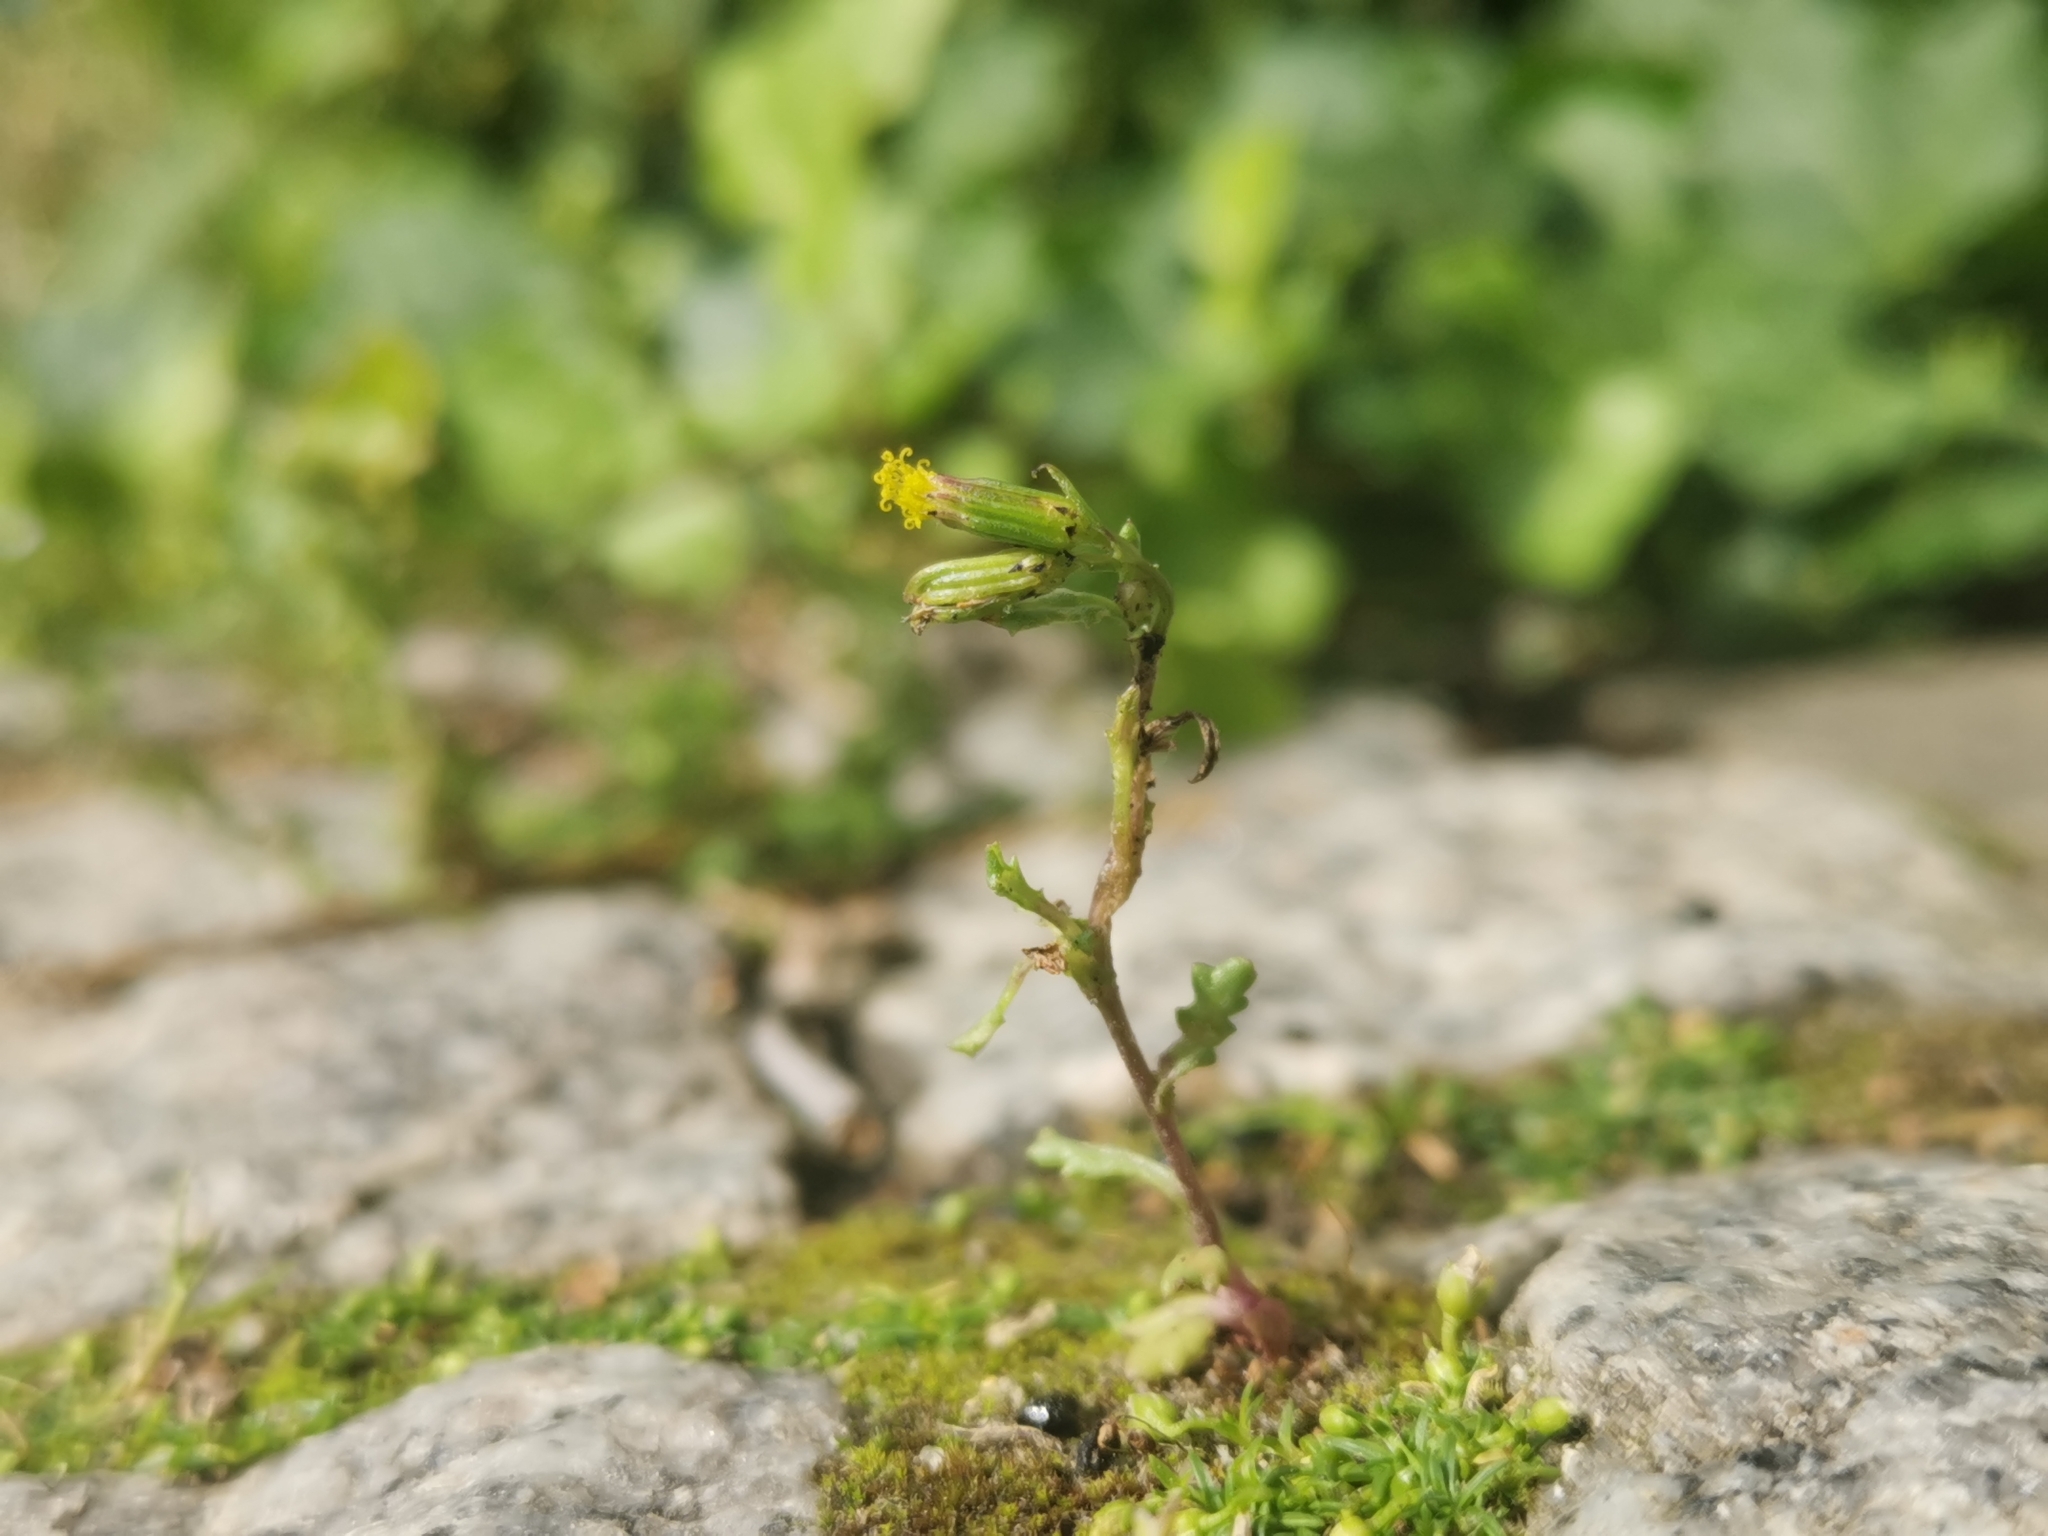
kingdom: Plantae
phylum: Tracheophyta
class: Magnoliopsida
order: Asterales
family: Asteraceae
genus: Senecio
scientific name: Senecio vulgaris
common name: Old-man-in-the-spring
